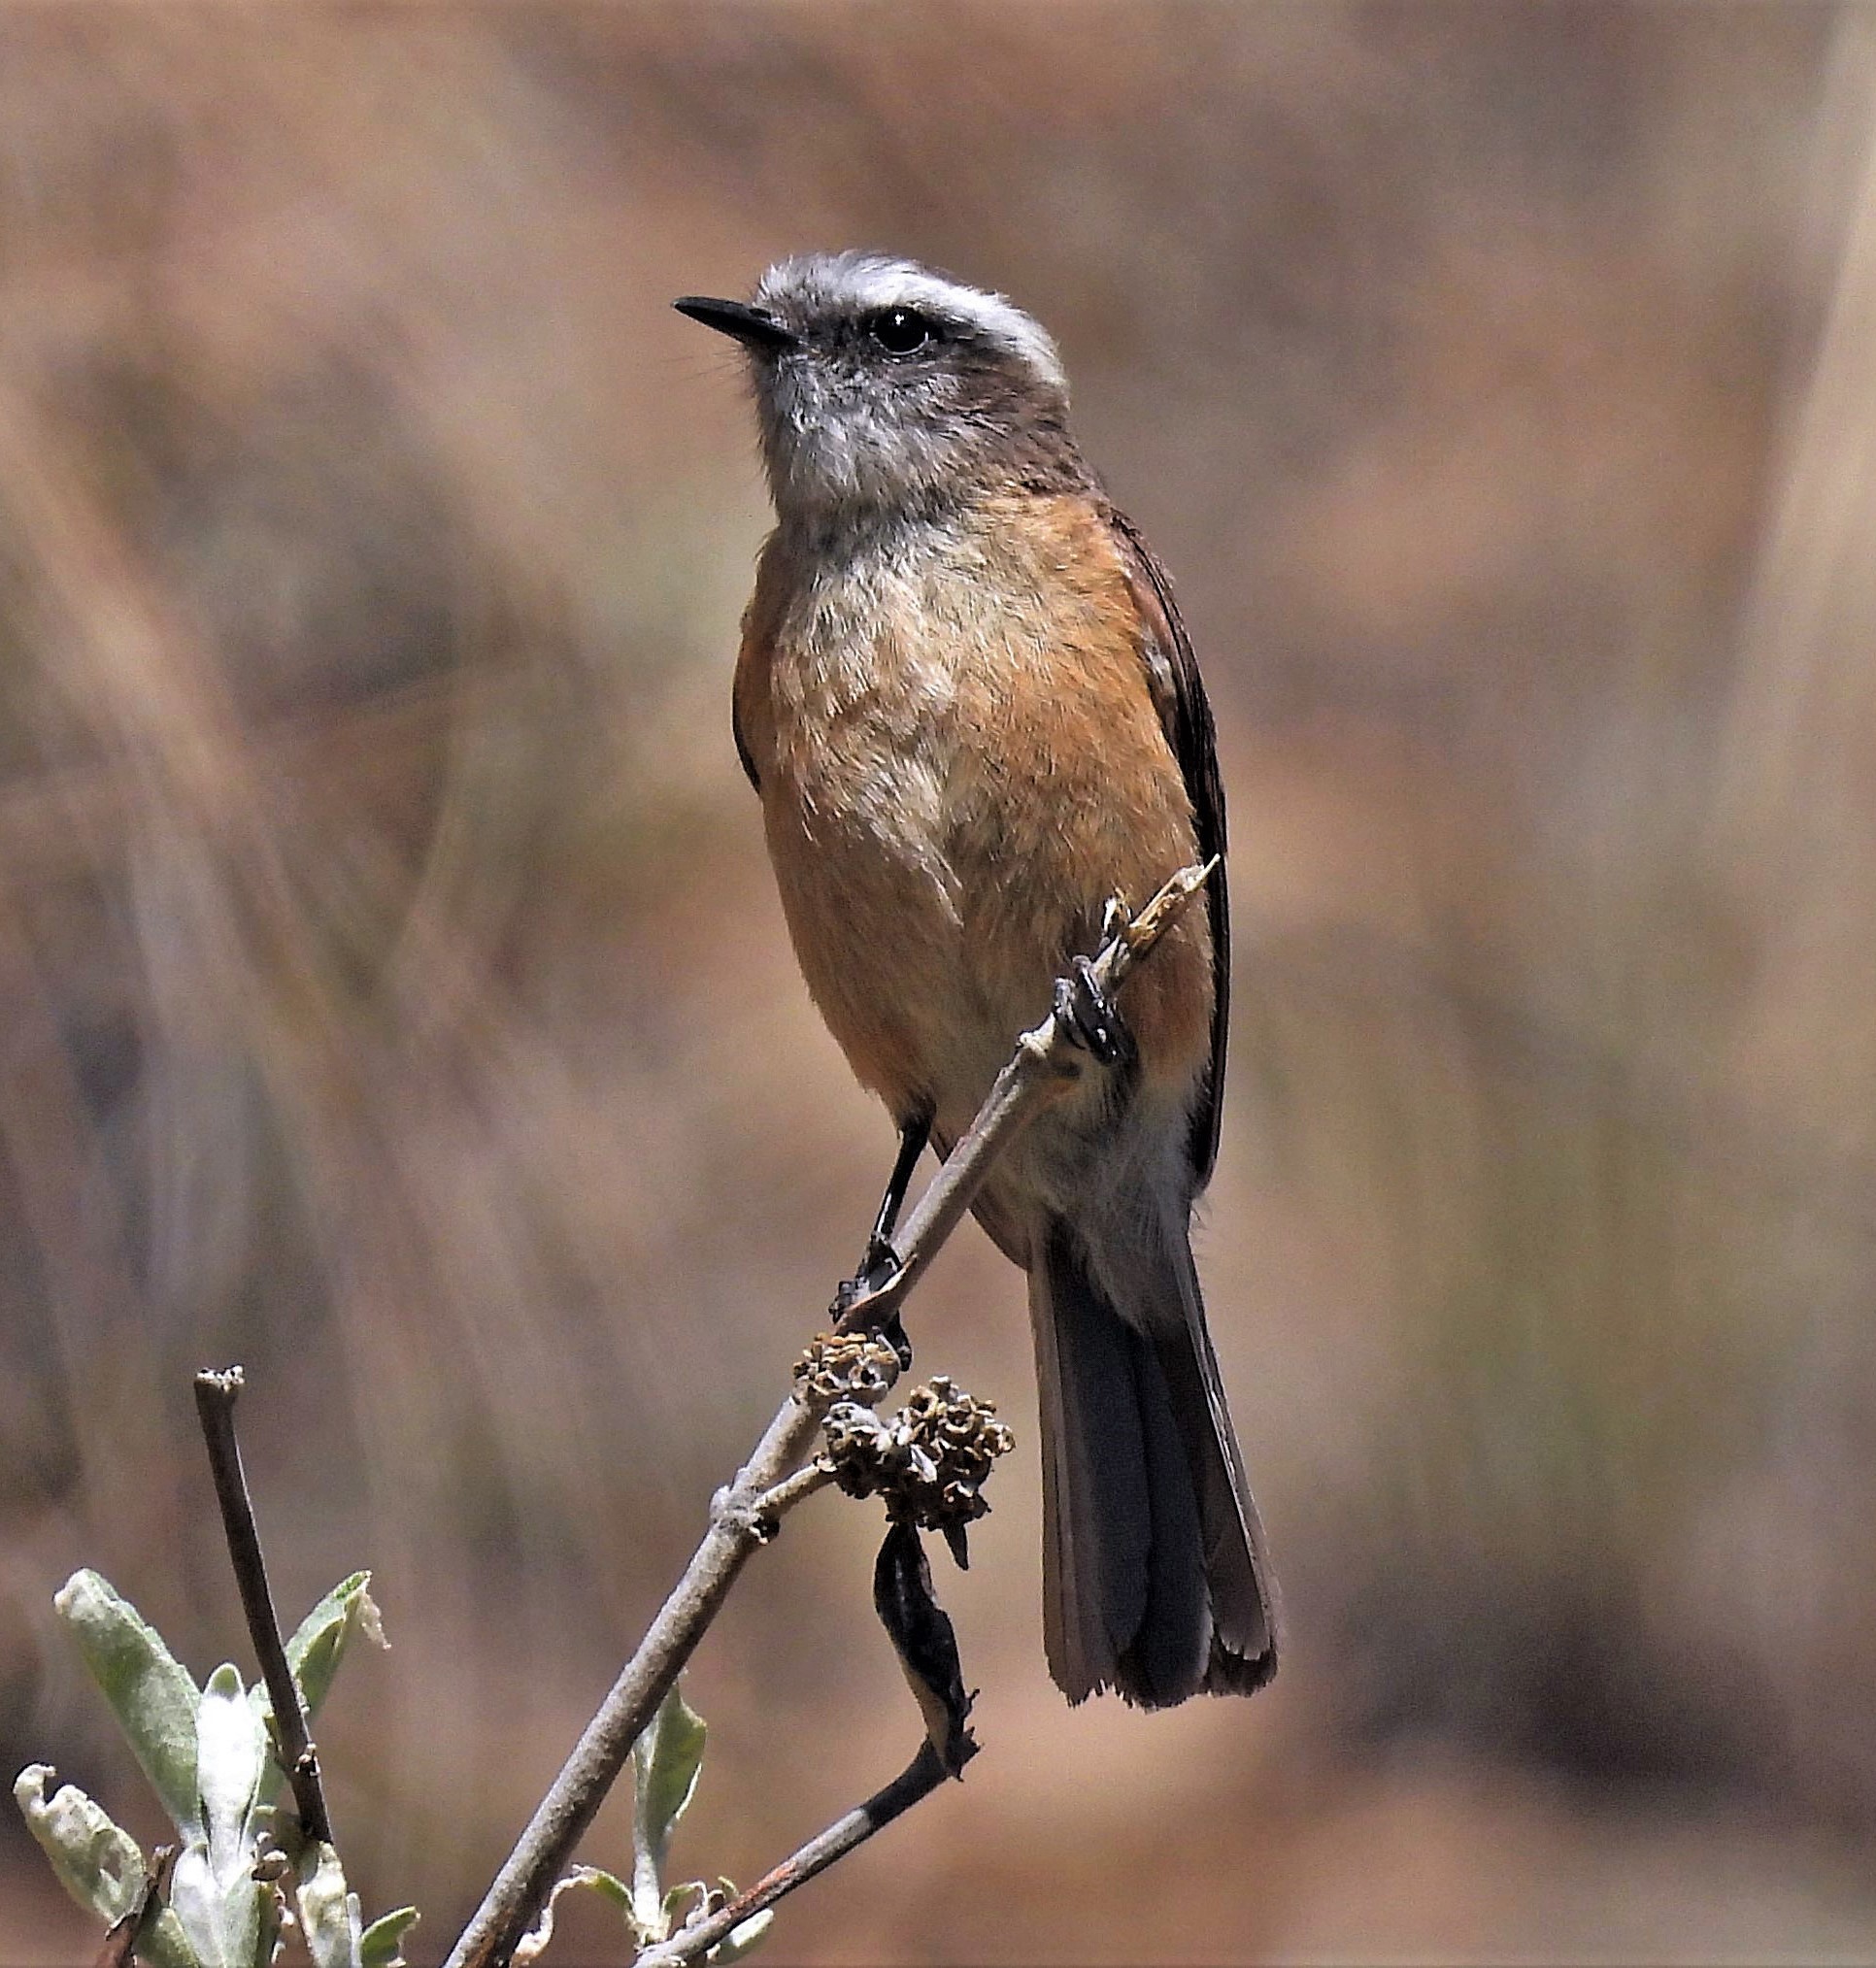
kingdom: Animalia
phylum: Chordata
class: Aves
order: Passeriformes
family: Tyrannidae
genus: Ochthoeca
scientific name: Ochthoeca oenanthoides
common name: D'orbigny's chat-tyrant
